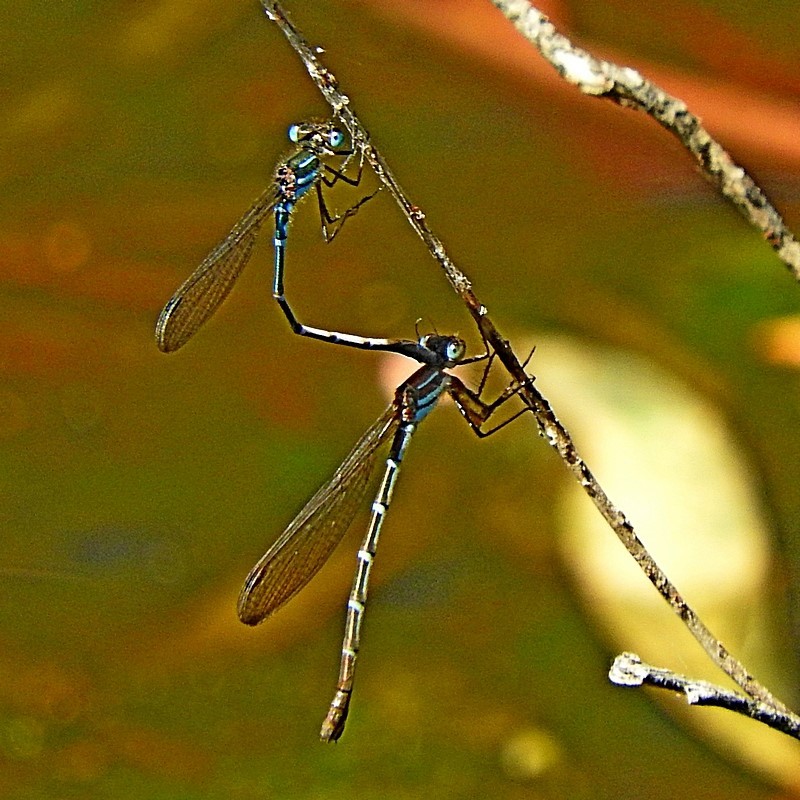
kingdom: Animalia
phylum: Arthropoda
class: Insecta
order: Odonata
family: Lestidae
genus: Austrolestes
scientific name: Austrolestes psyche
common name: Cup ringtail
